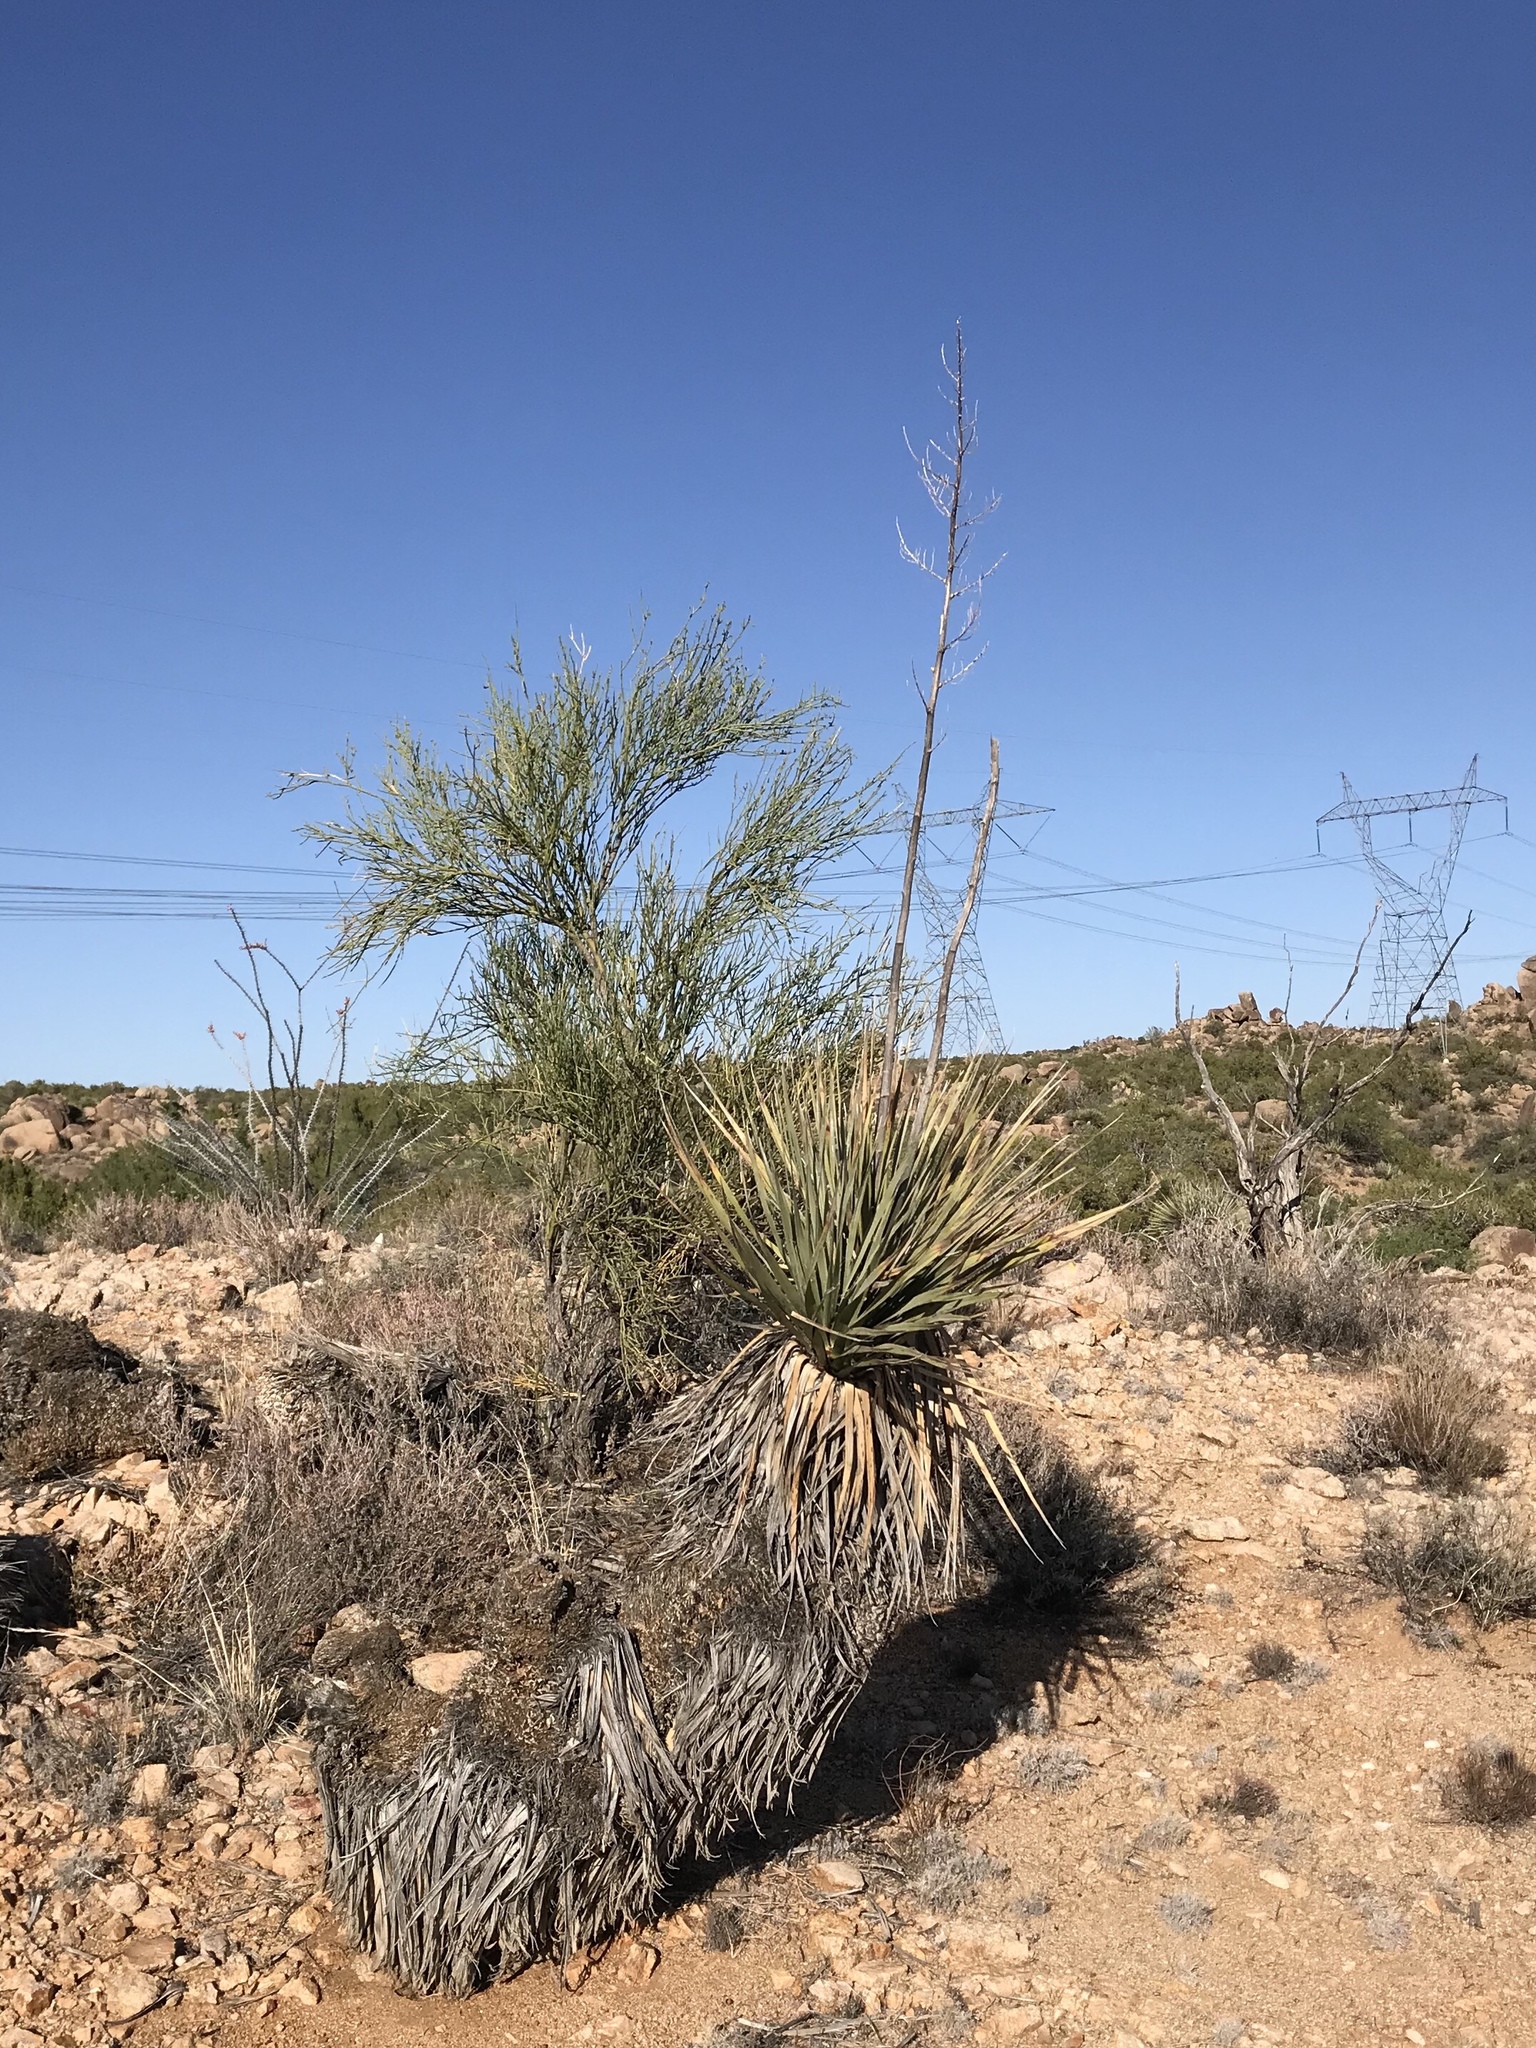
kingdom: Plantae
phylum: Tracheophyta
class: Liliopsida
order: Asparagales
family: Asparagaceae
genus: Nolina
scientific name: Nolina bigelovii
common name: Bigelow bear-grass
